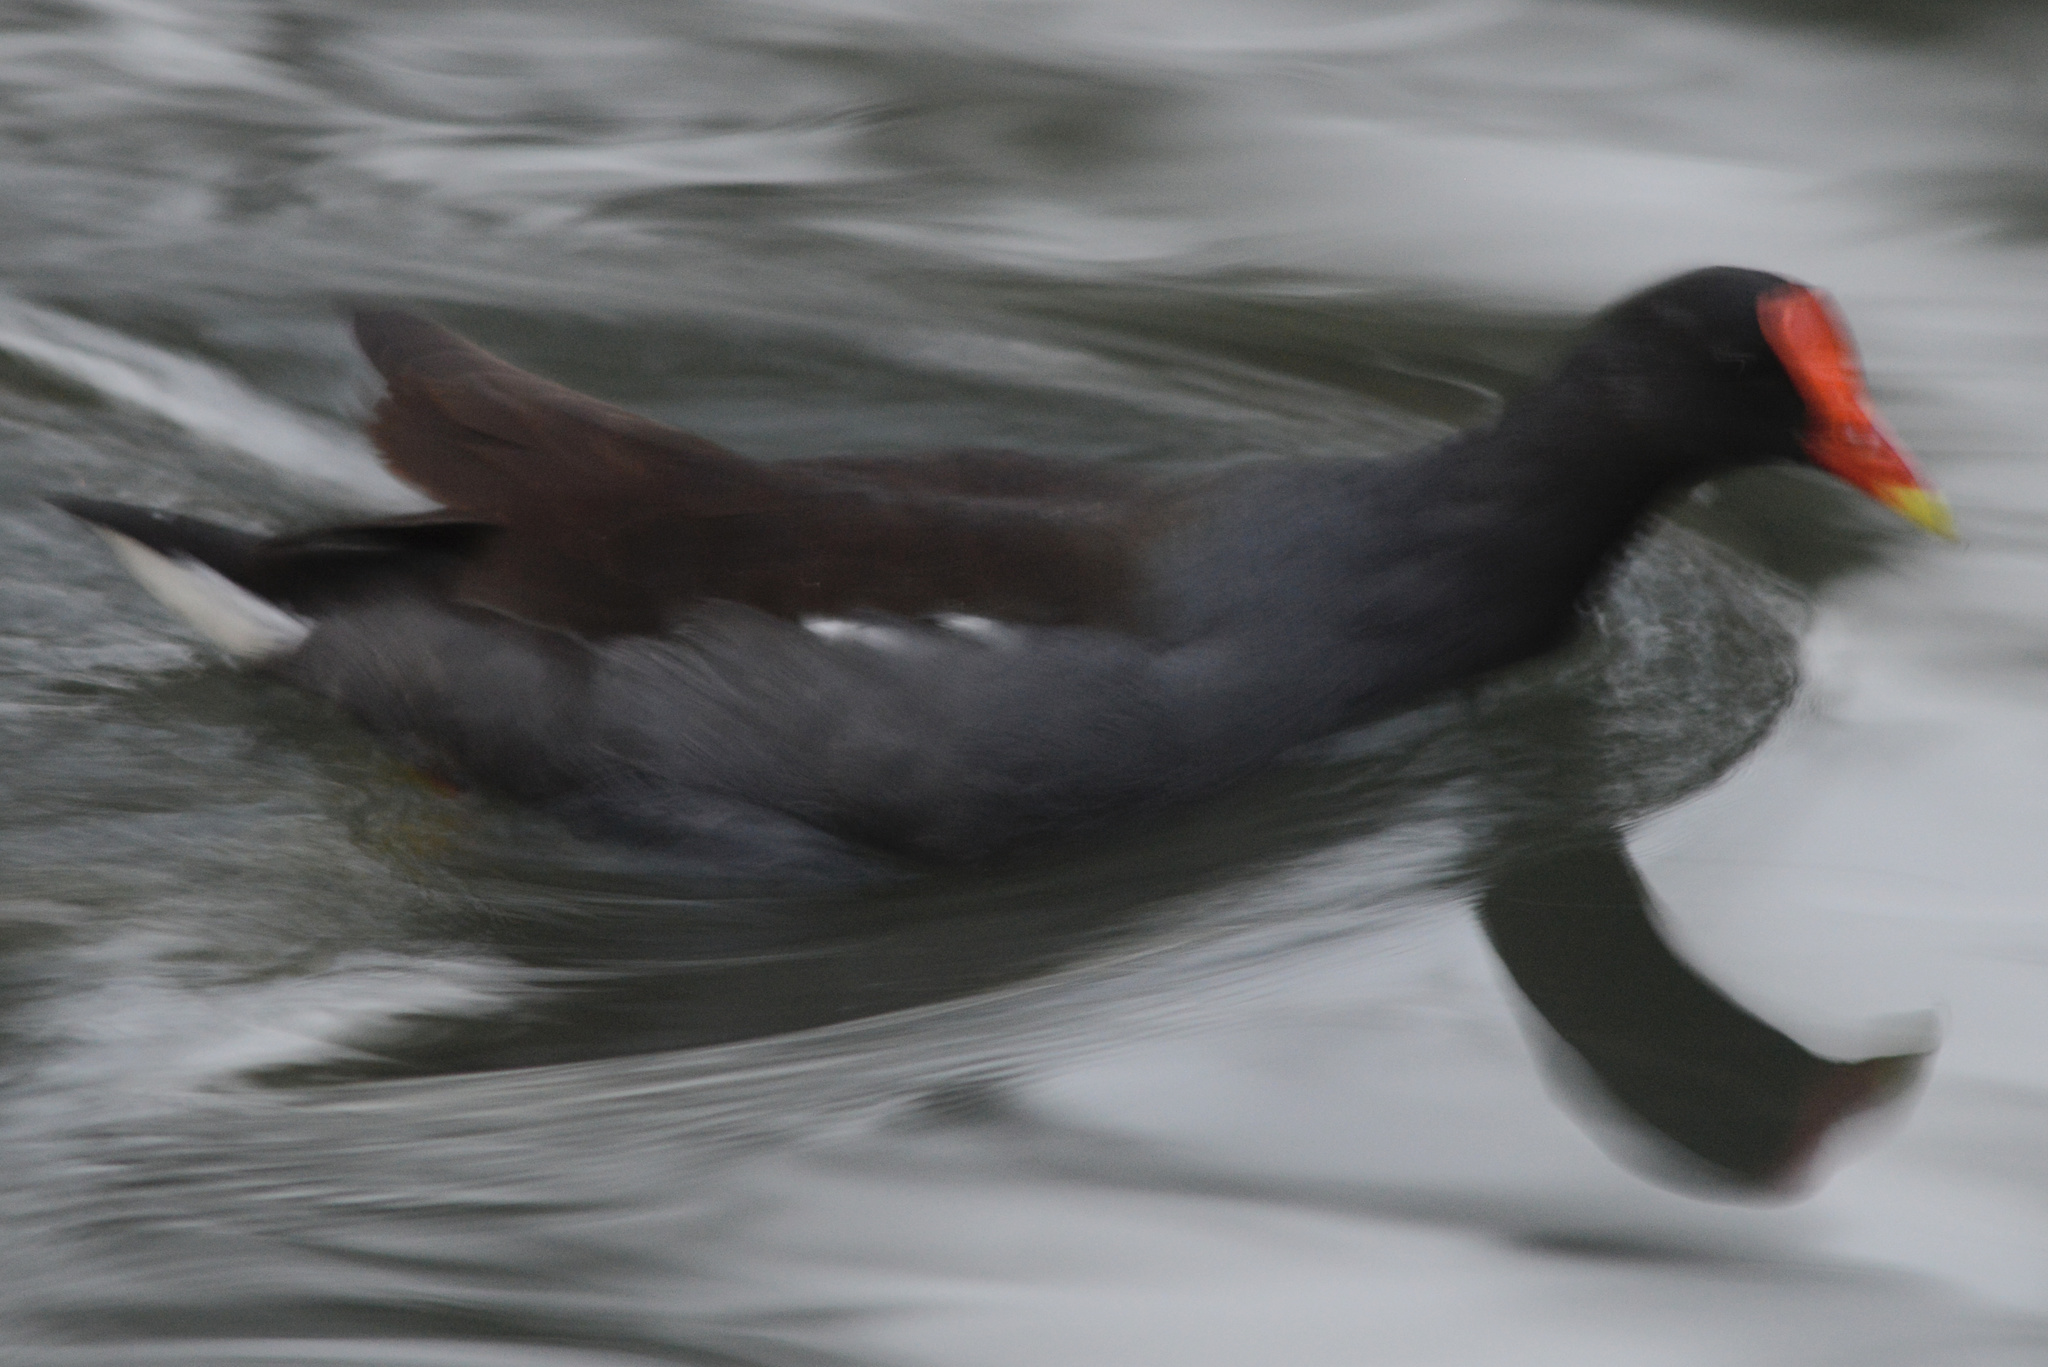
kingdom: Animalia
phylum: Chordata
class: Aves
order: Gruiformes
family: Rallidae
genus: Gallinula
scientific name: Gallinula chloropus
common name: Common moorhen
